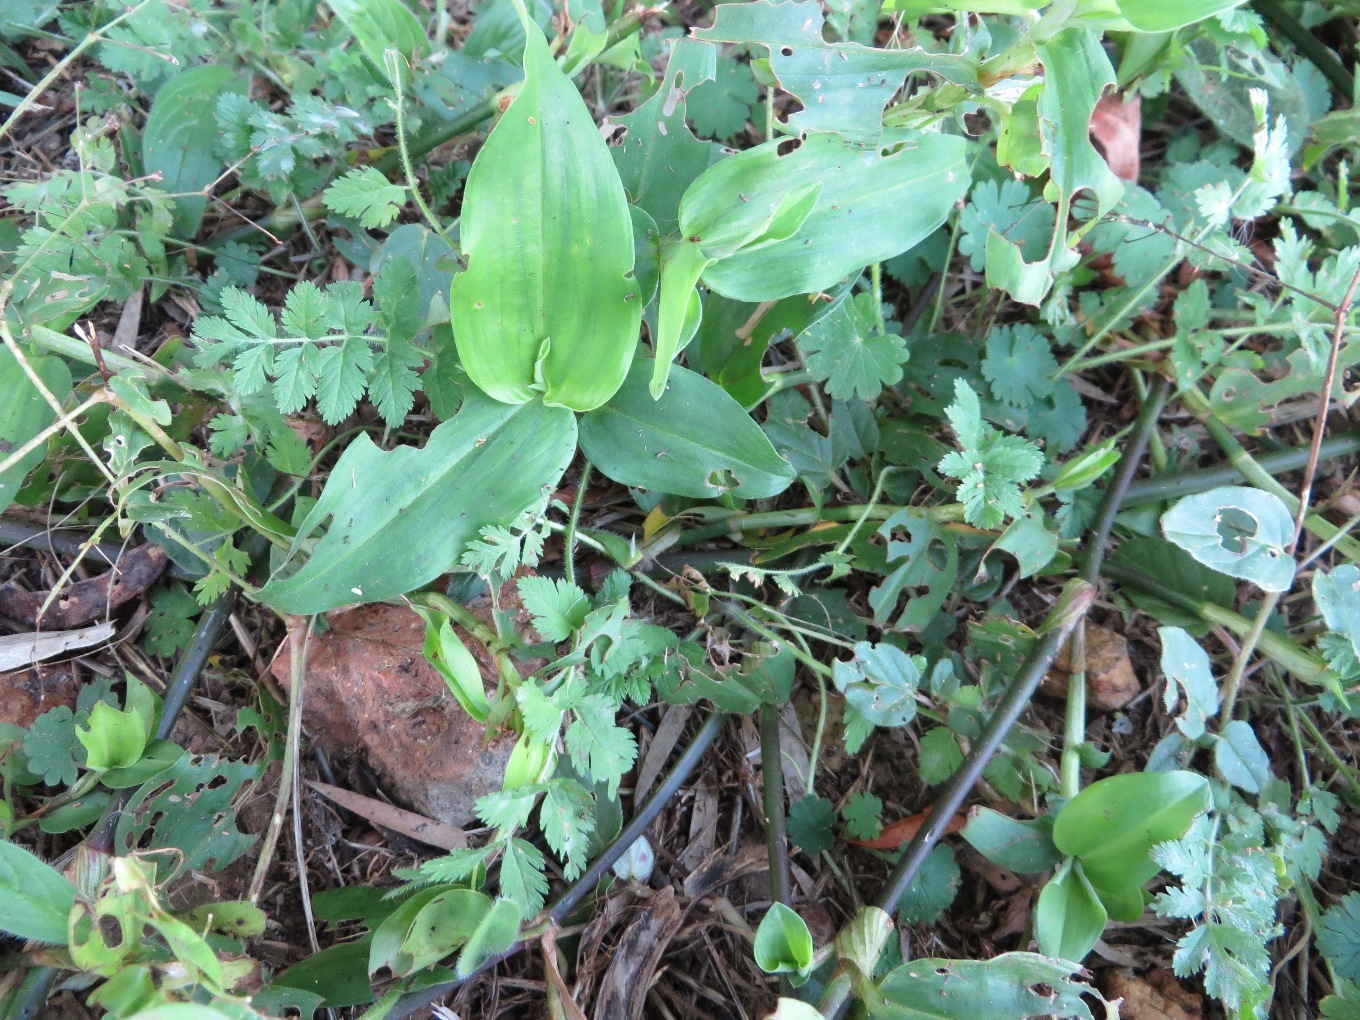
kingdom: Plantae
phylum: Tracheophyta
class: Liliopsida
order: Commelinales
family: Commelinaceae
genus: Commelina
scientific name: Commelina diffusa
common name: Climbing dayflower
